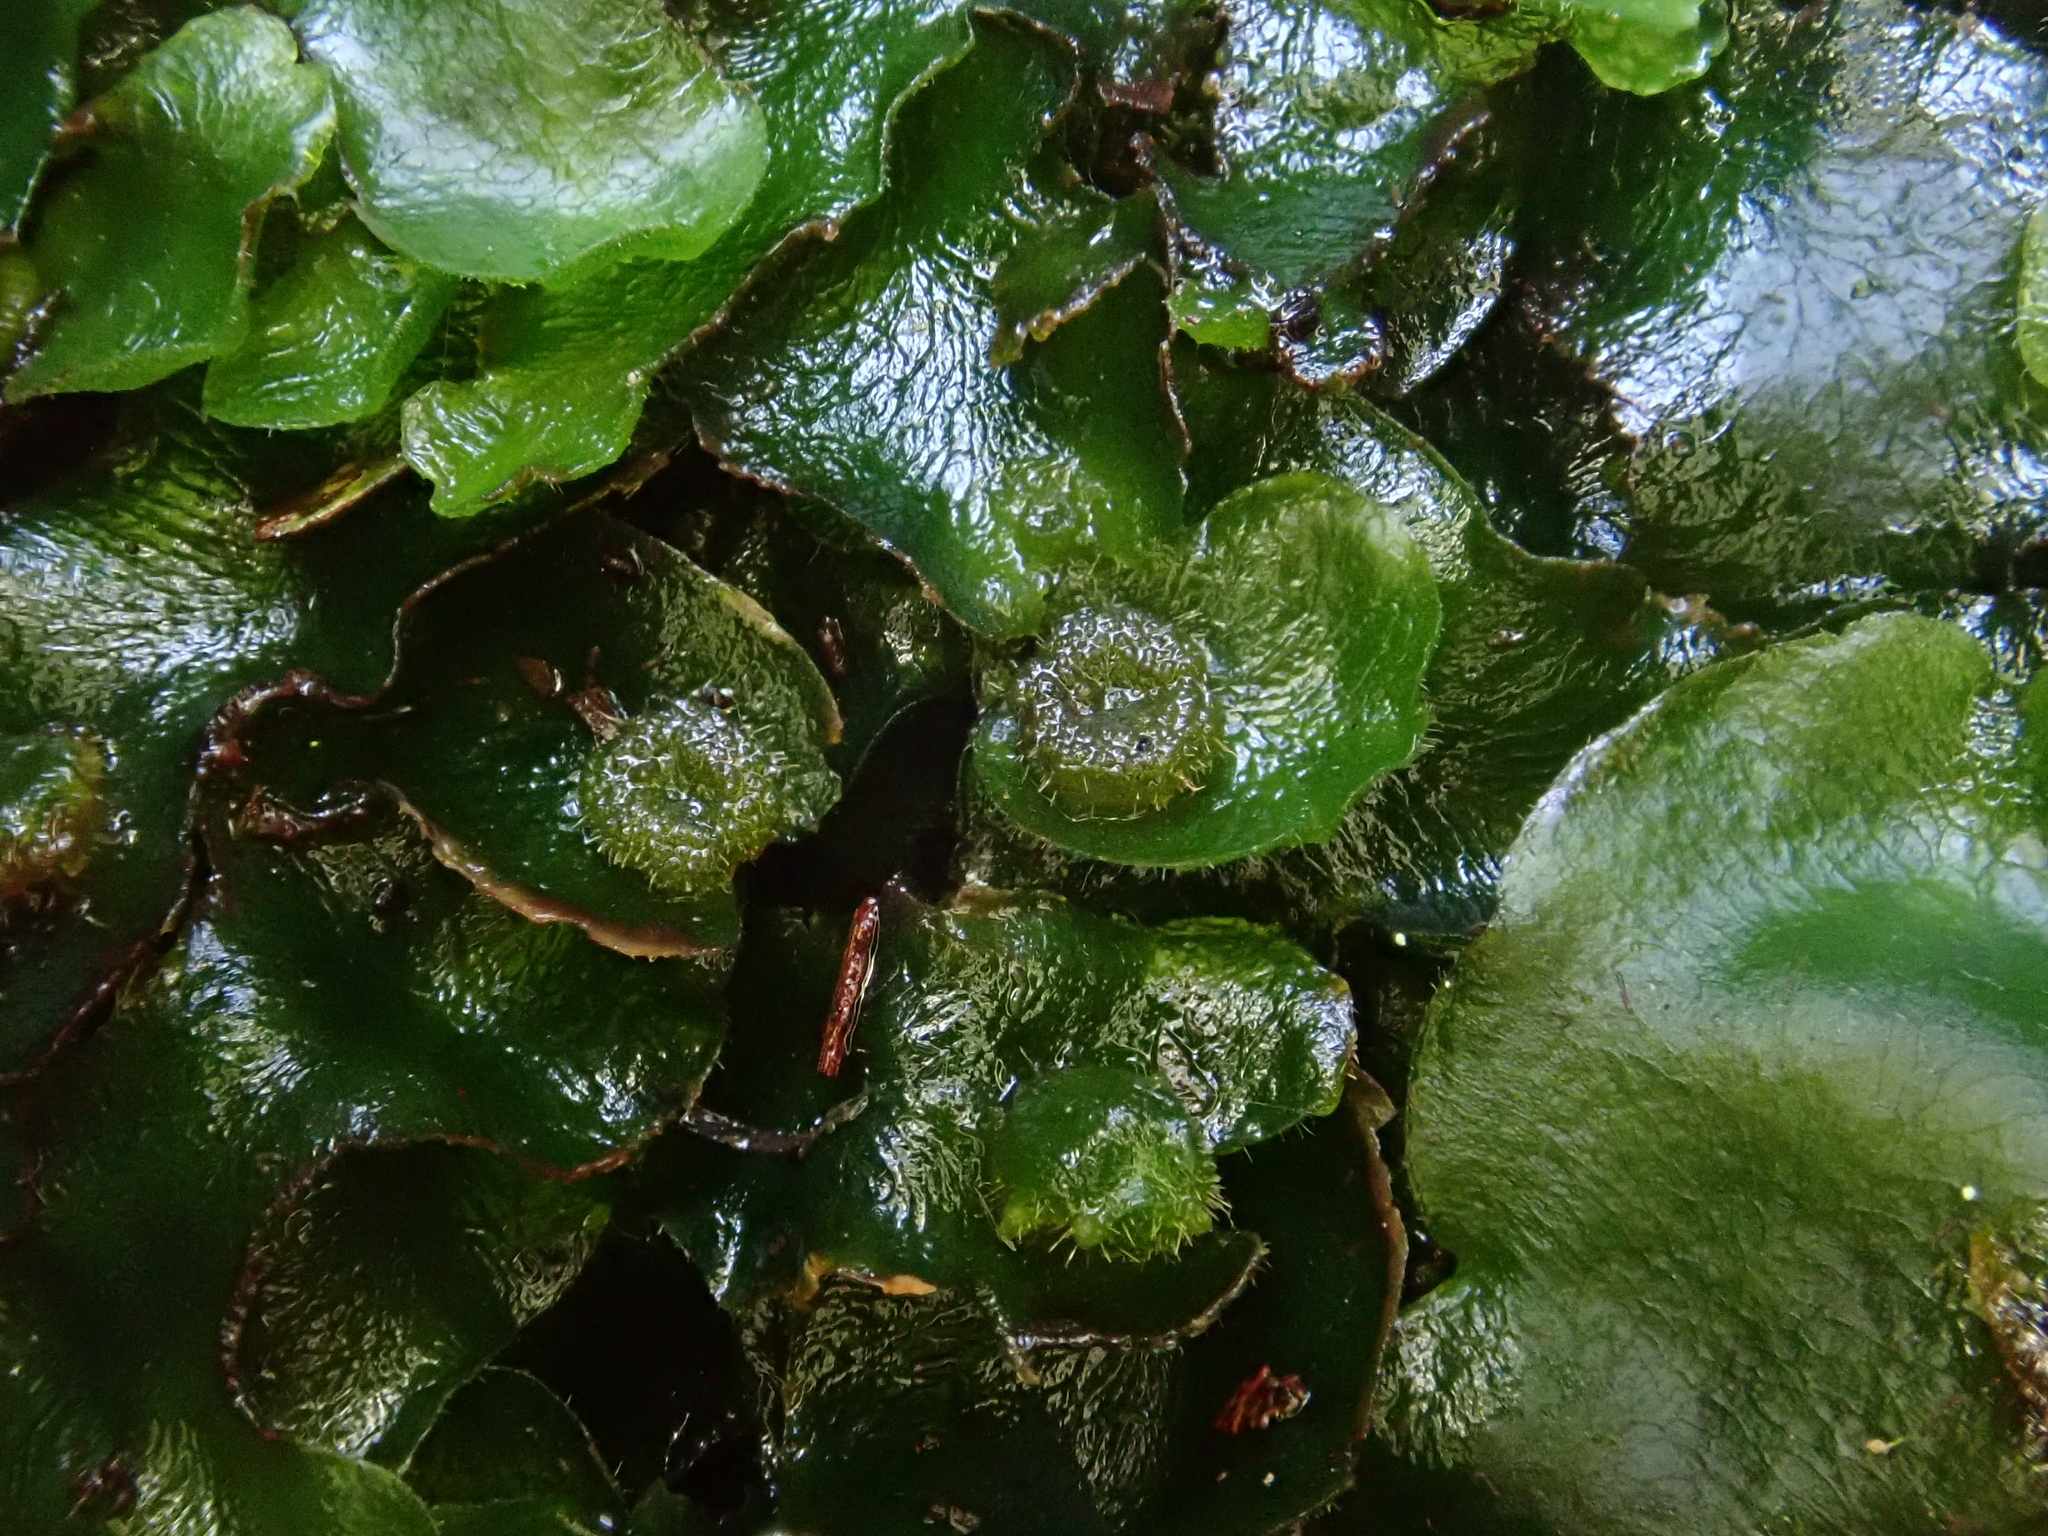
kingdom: Plantae
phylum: Marchantiophyta
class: Marchantiopsida
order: Marchantiales
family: Dumortieraceae
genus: Dumortiera
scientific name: Dumortiera hirsuta
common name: Dumortier's liverwort
